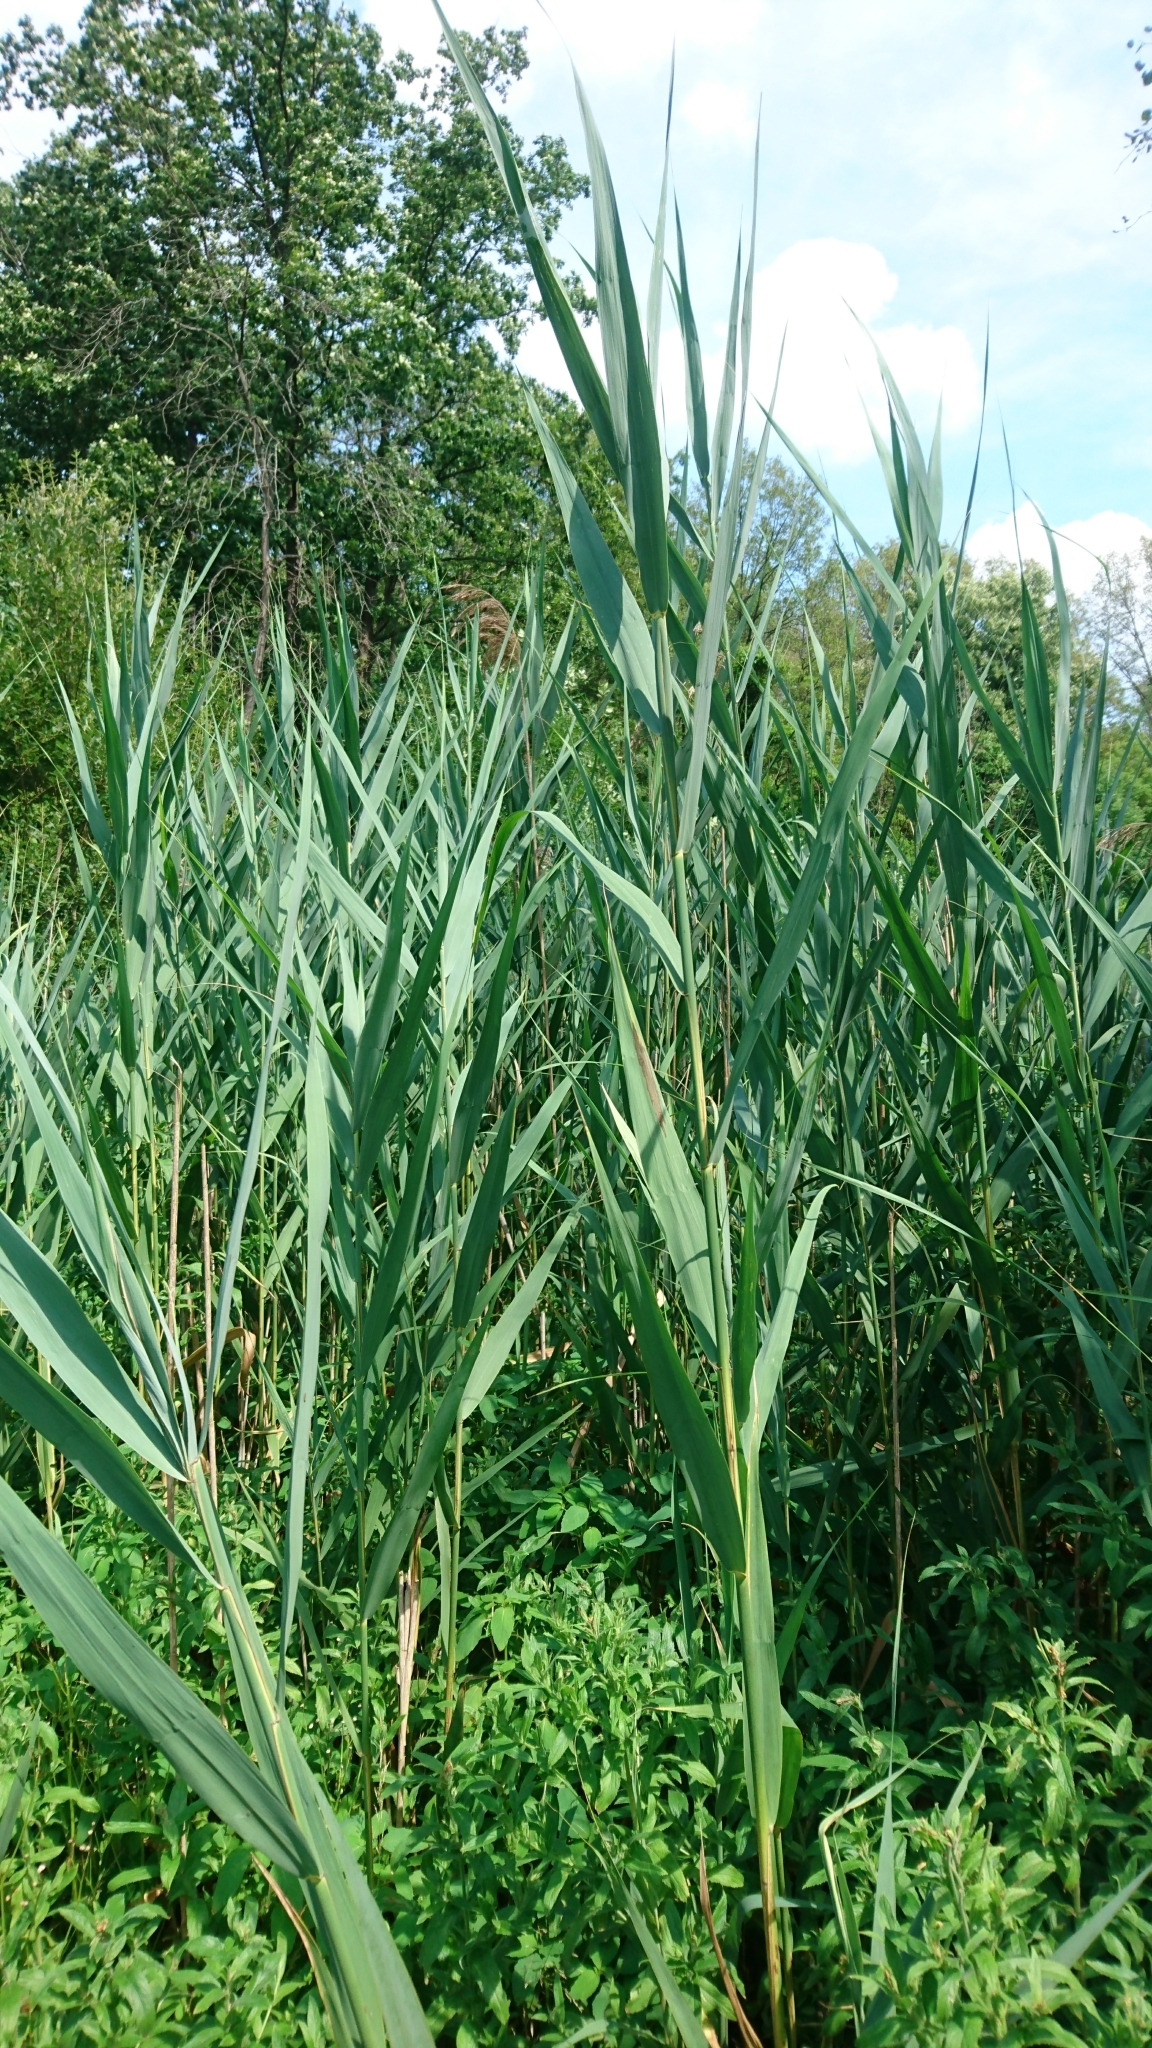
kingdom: Plantae
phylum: Tracheophyta
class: Liliopsida
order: Poales
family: Poaceae
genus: Phragmites
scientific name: Phragmites australis
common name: Common reed
